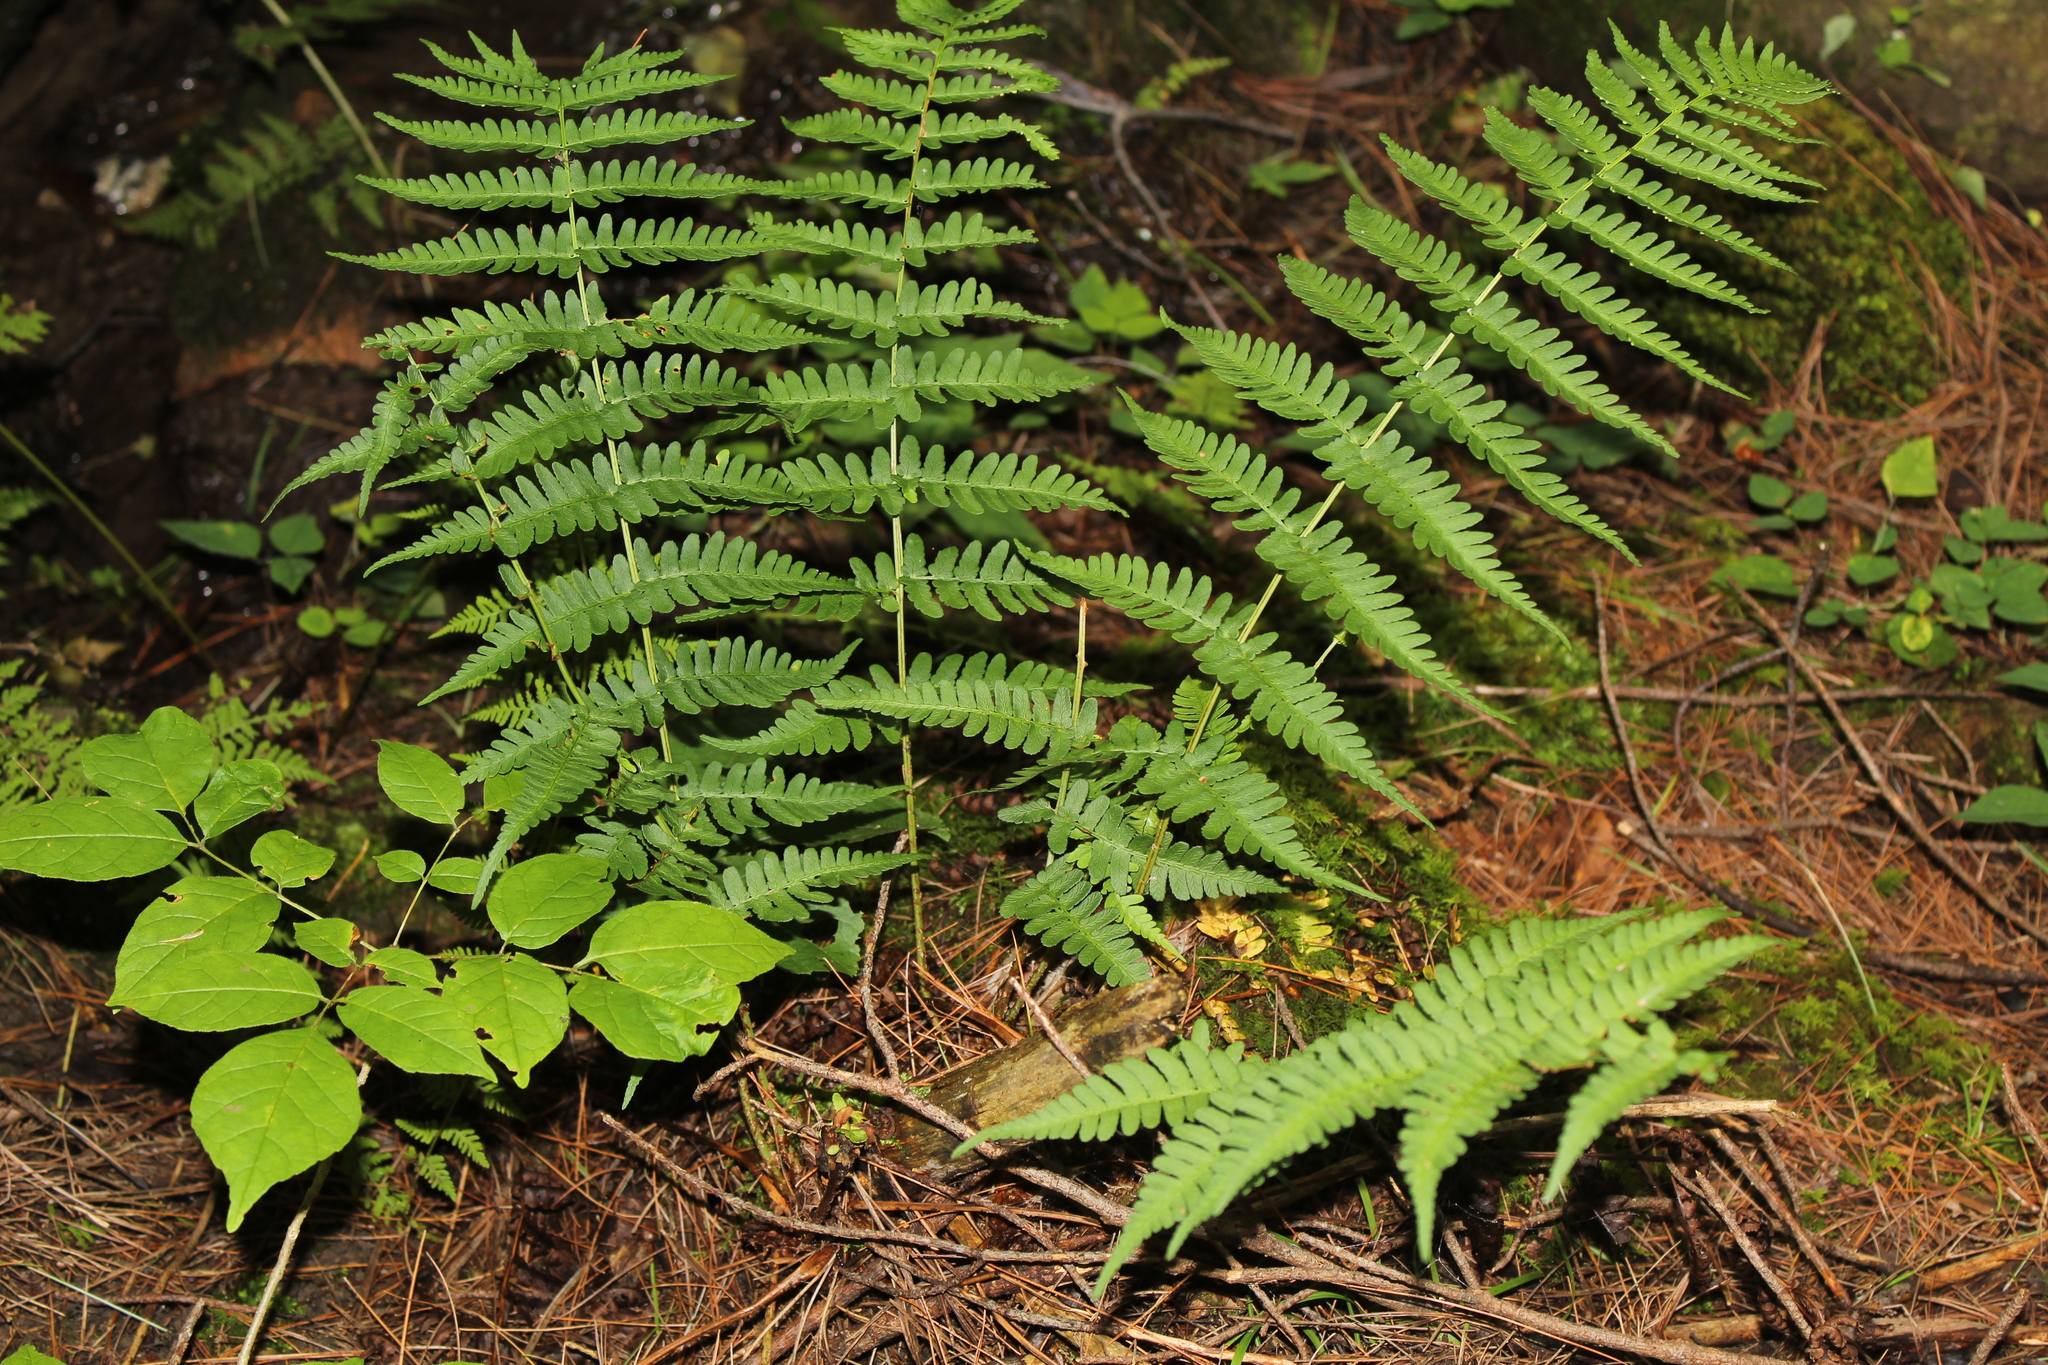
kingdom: Plantae
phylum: Tracheophyta
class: Polypodiopsida
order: Polypodiales
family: Dryopteridaceae
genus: Dryopteris
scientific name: Dryopteris marginalis
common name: Marginal wood fern
